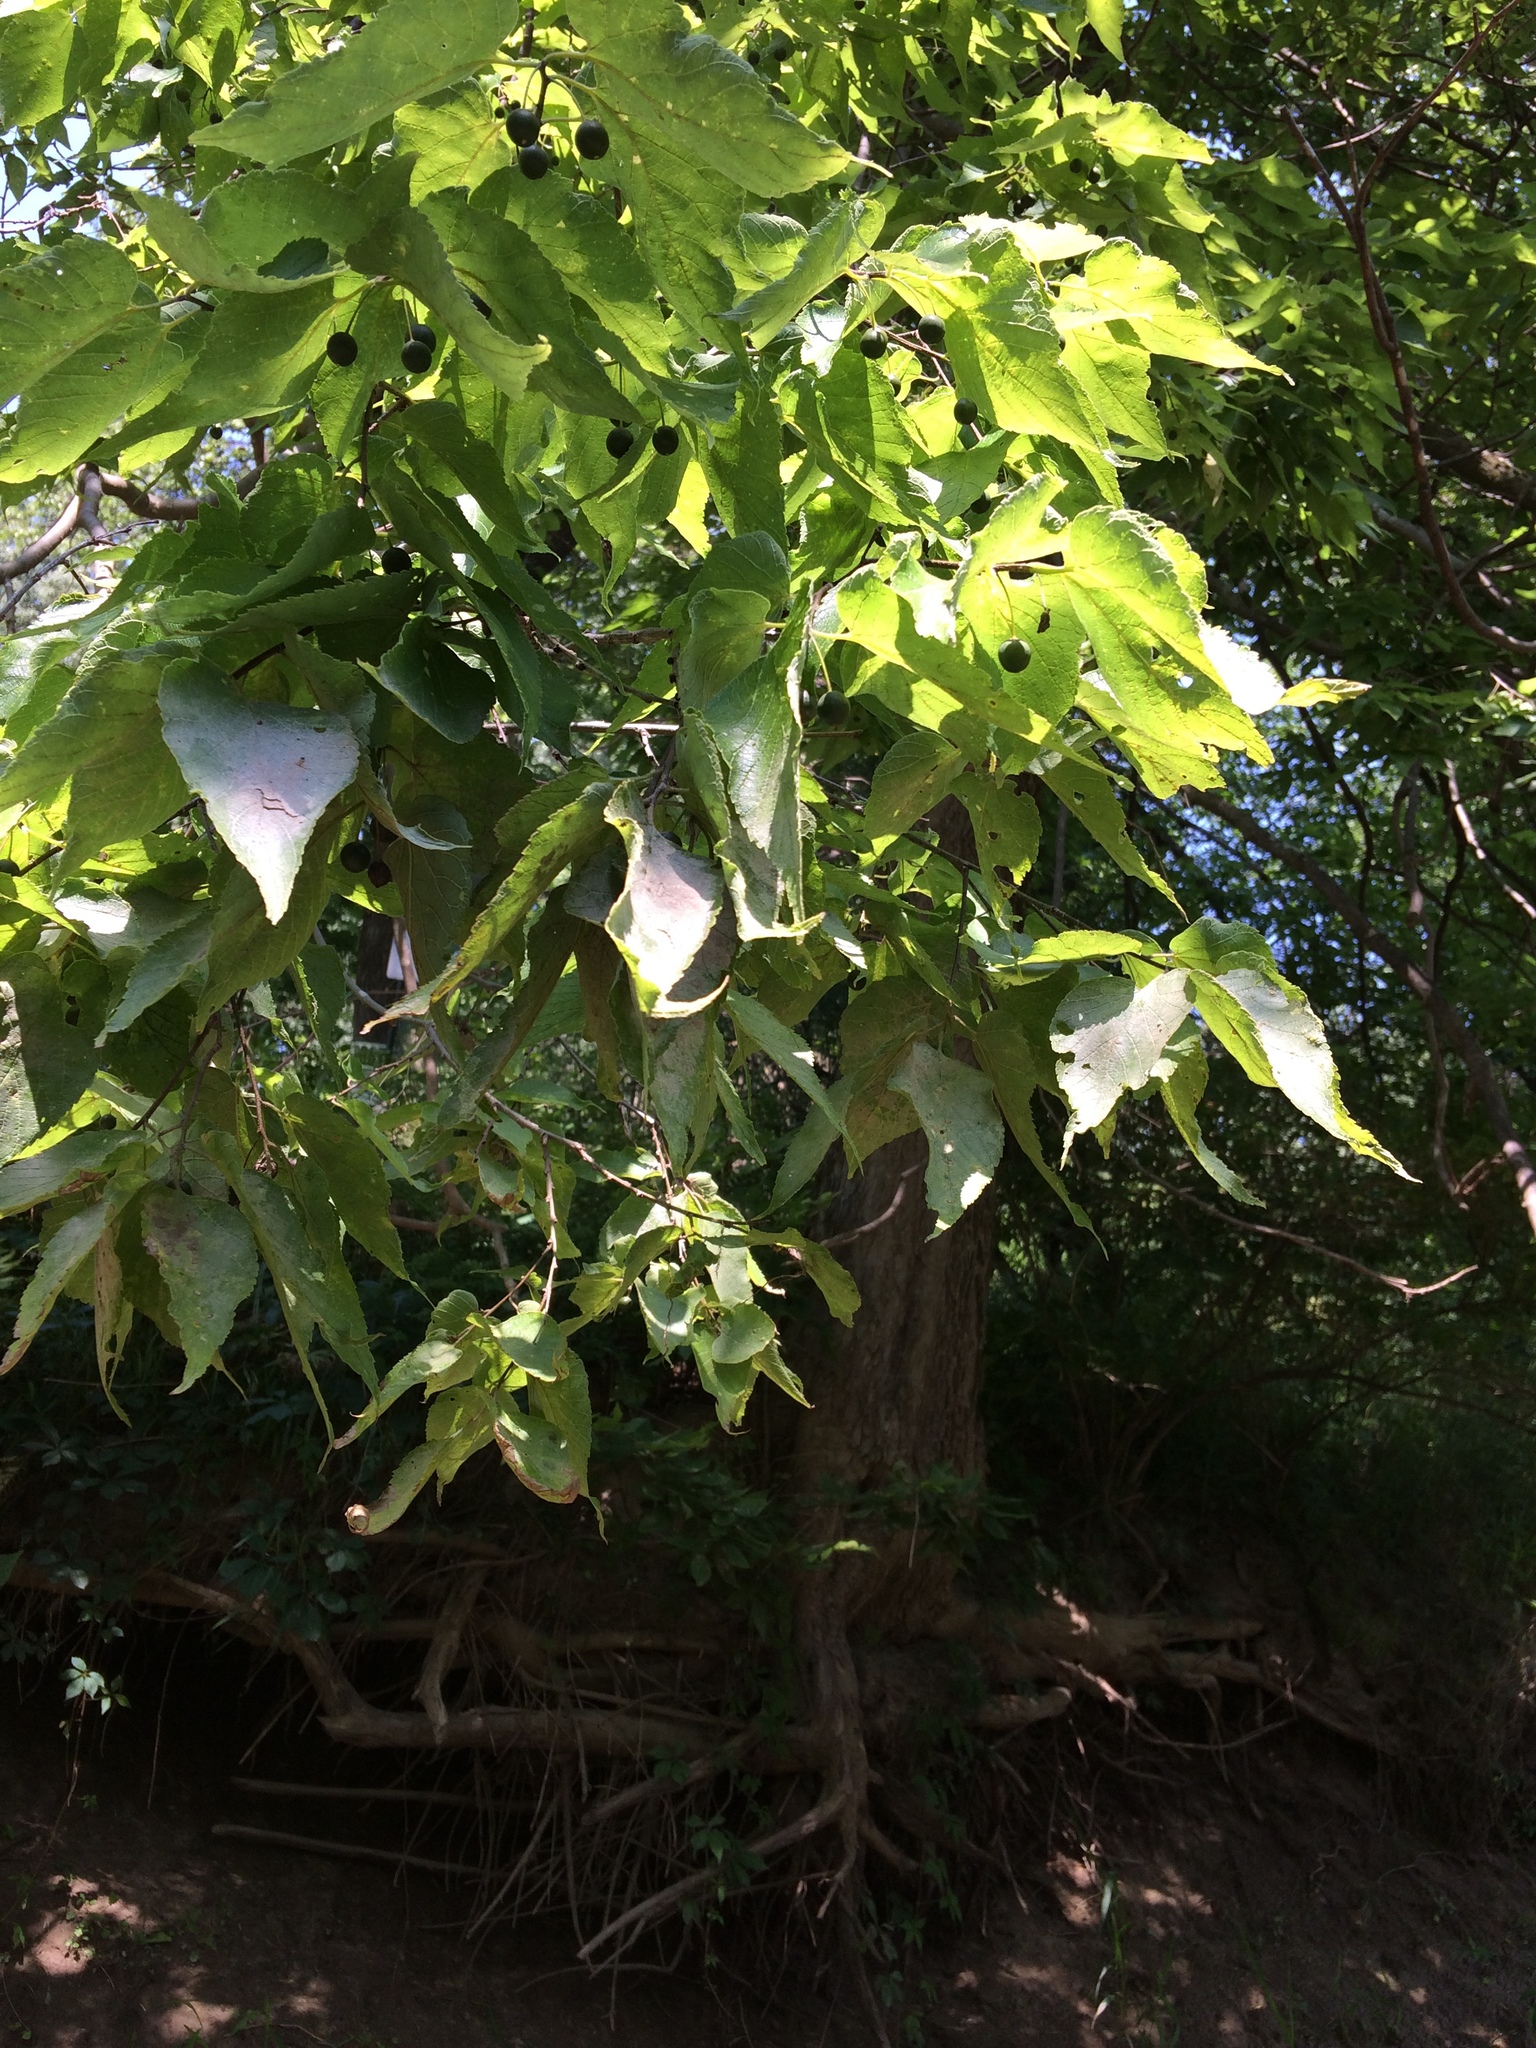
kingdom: Plantae
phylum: Tracheophyta
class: Magnoliopsida
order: Rosales
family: Cannabaceae
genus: Celtis
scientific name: Celtis occidentalis
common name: Common hackberry
